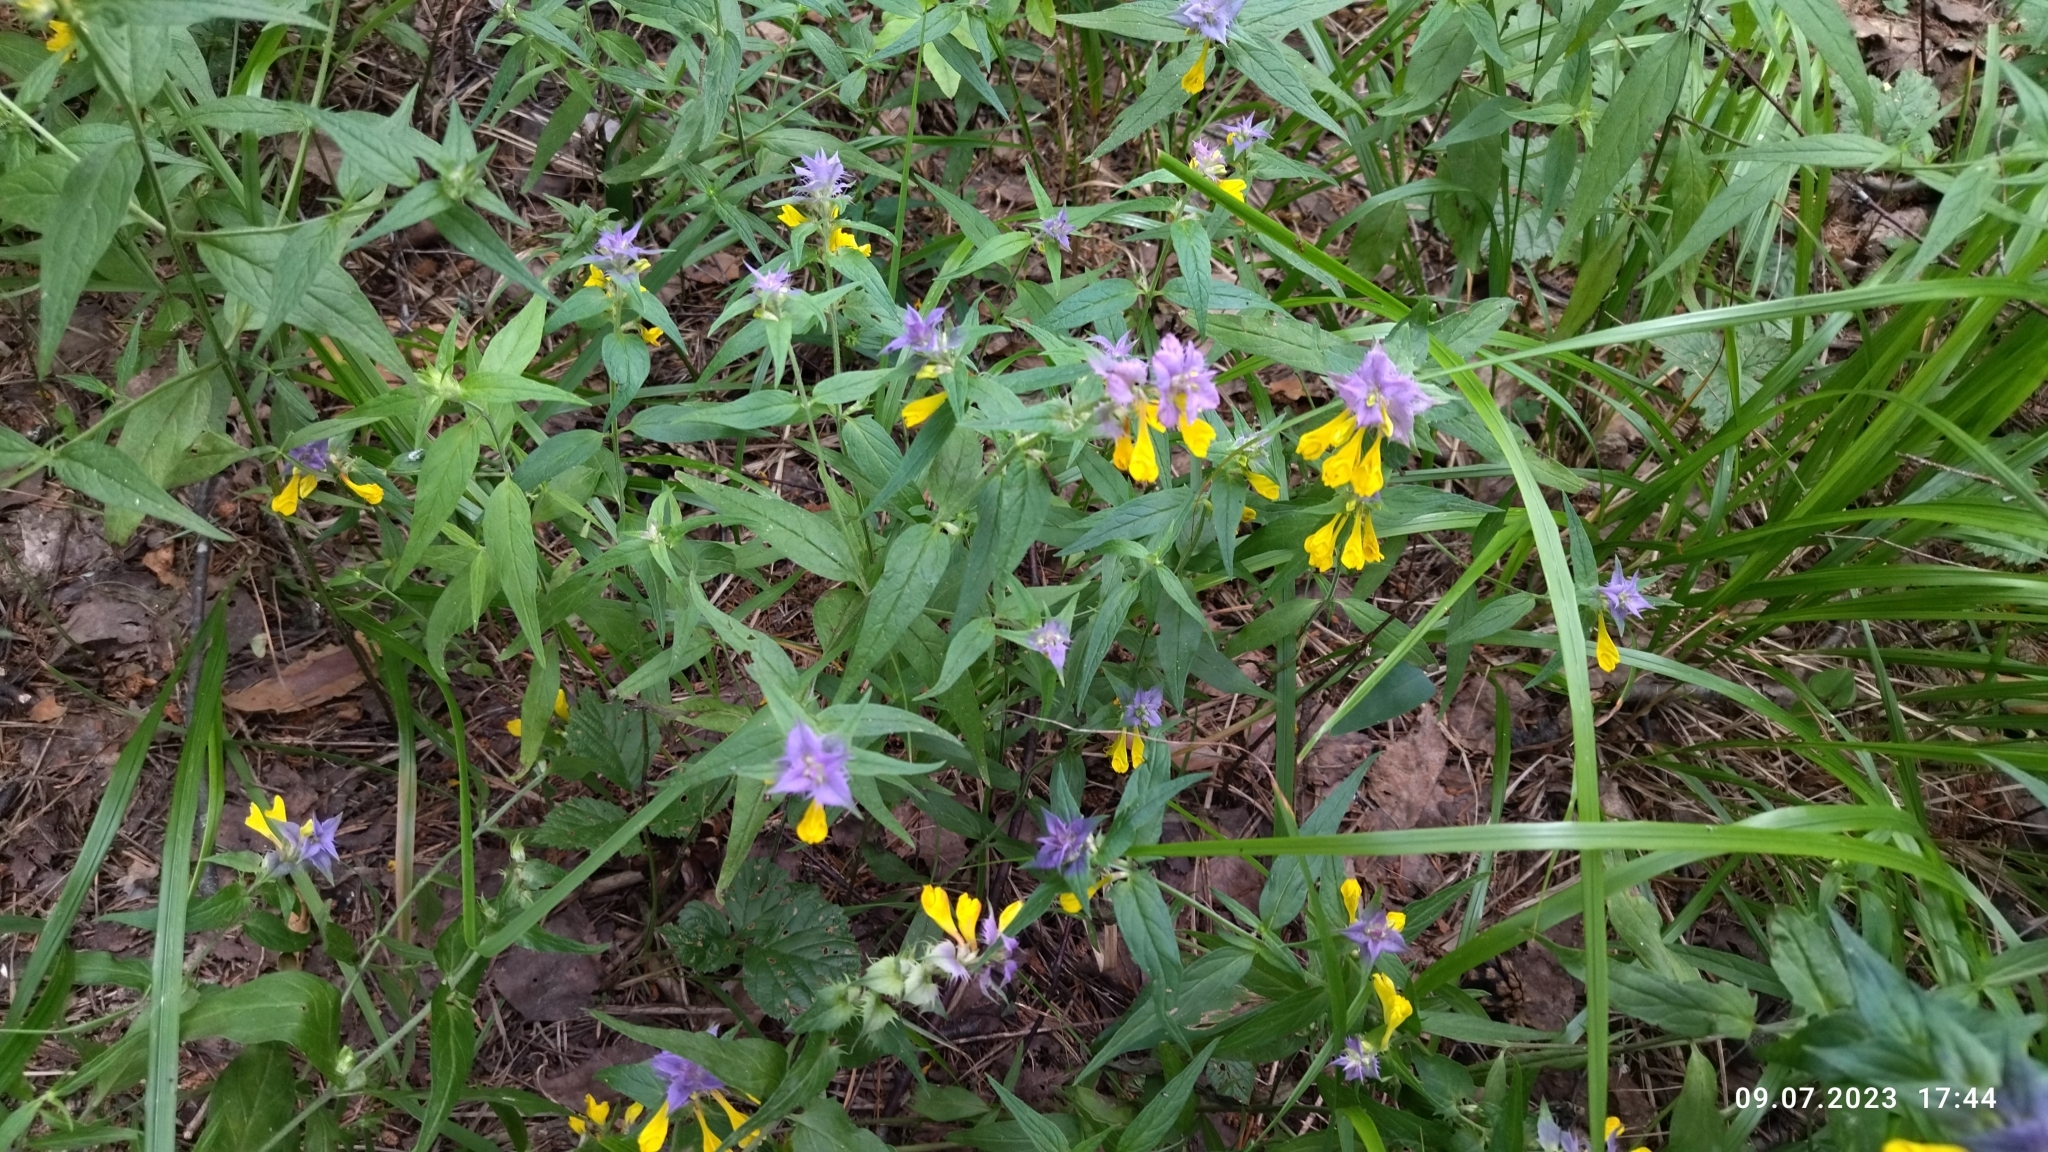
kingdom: Plantae
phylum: Tracheophyta
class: Magnoliopsida
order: Lamiales
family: Orobanchaceae
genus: Melampyrum
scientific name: Melampyrum nemorosum
